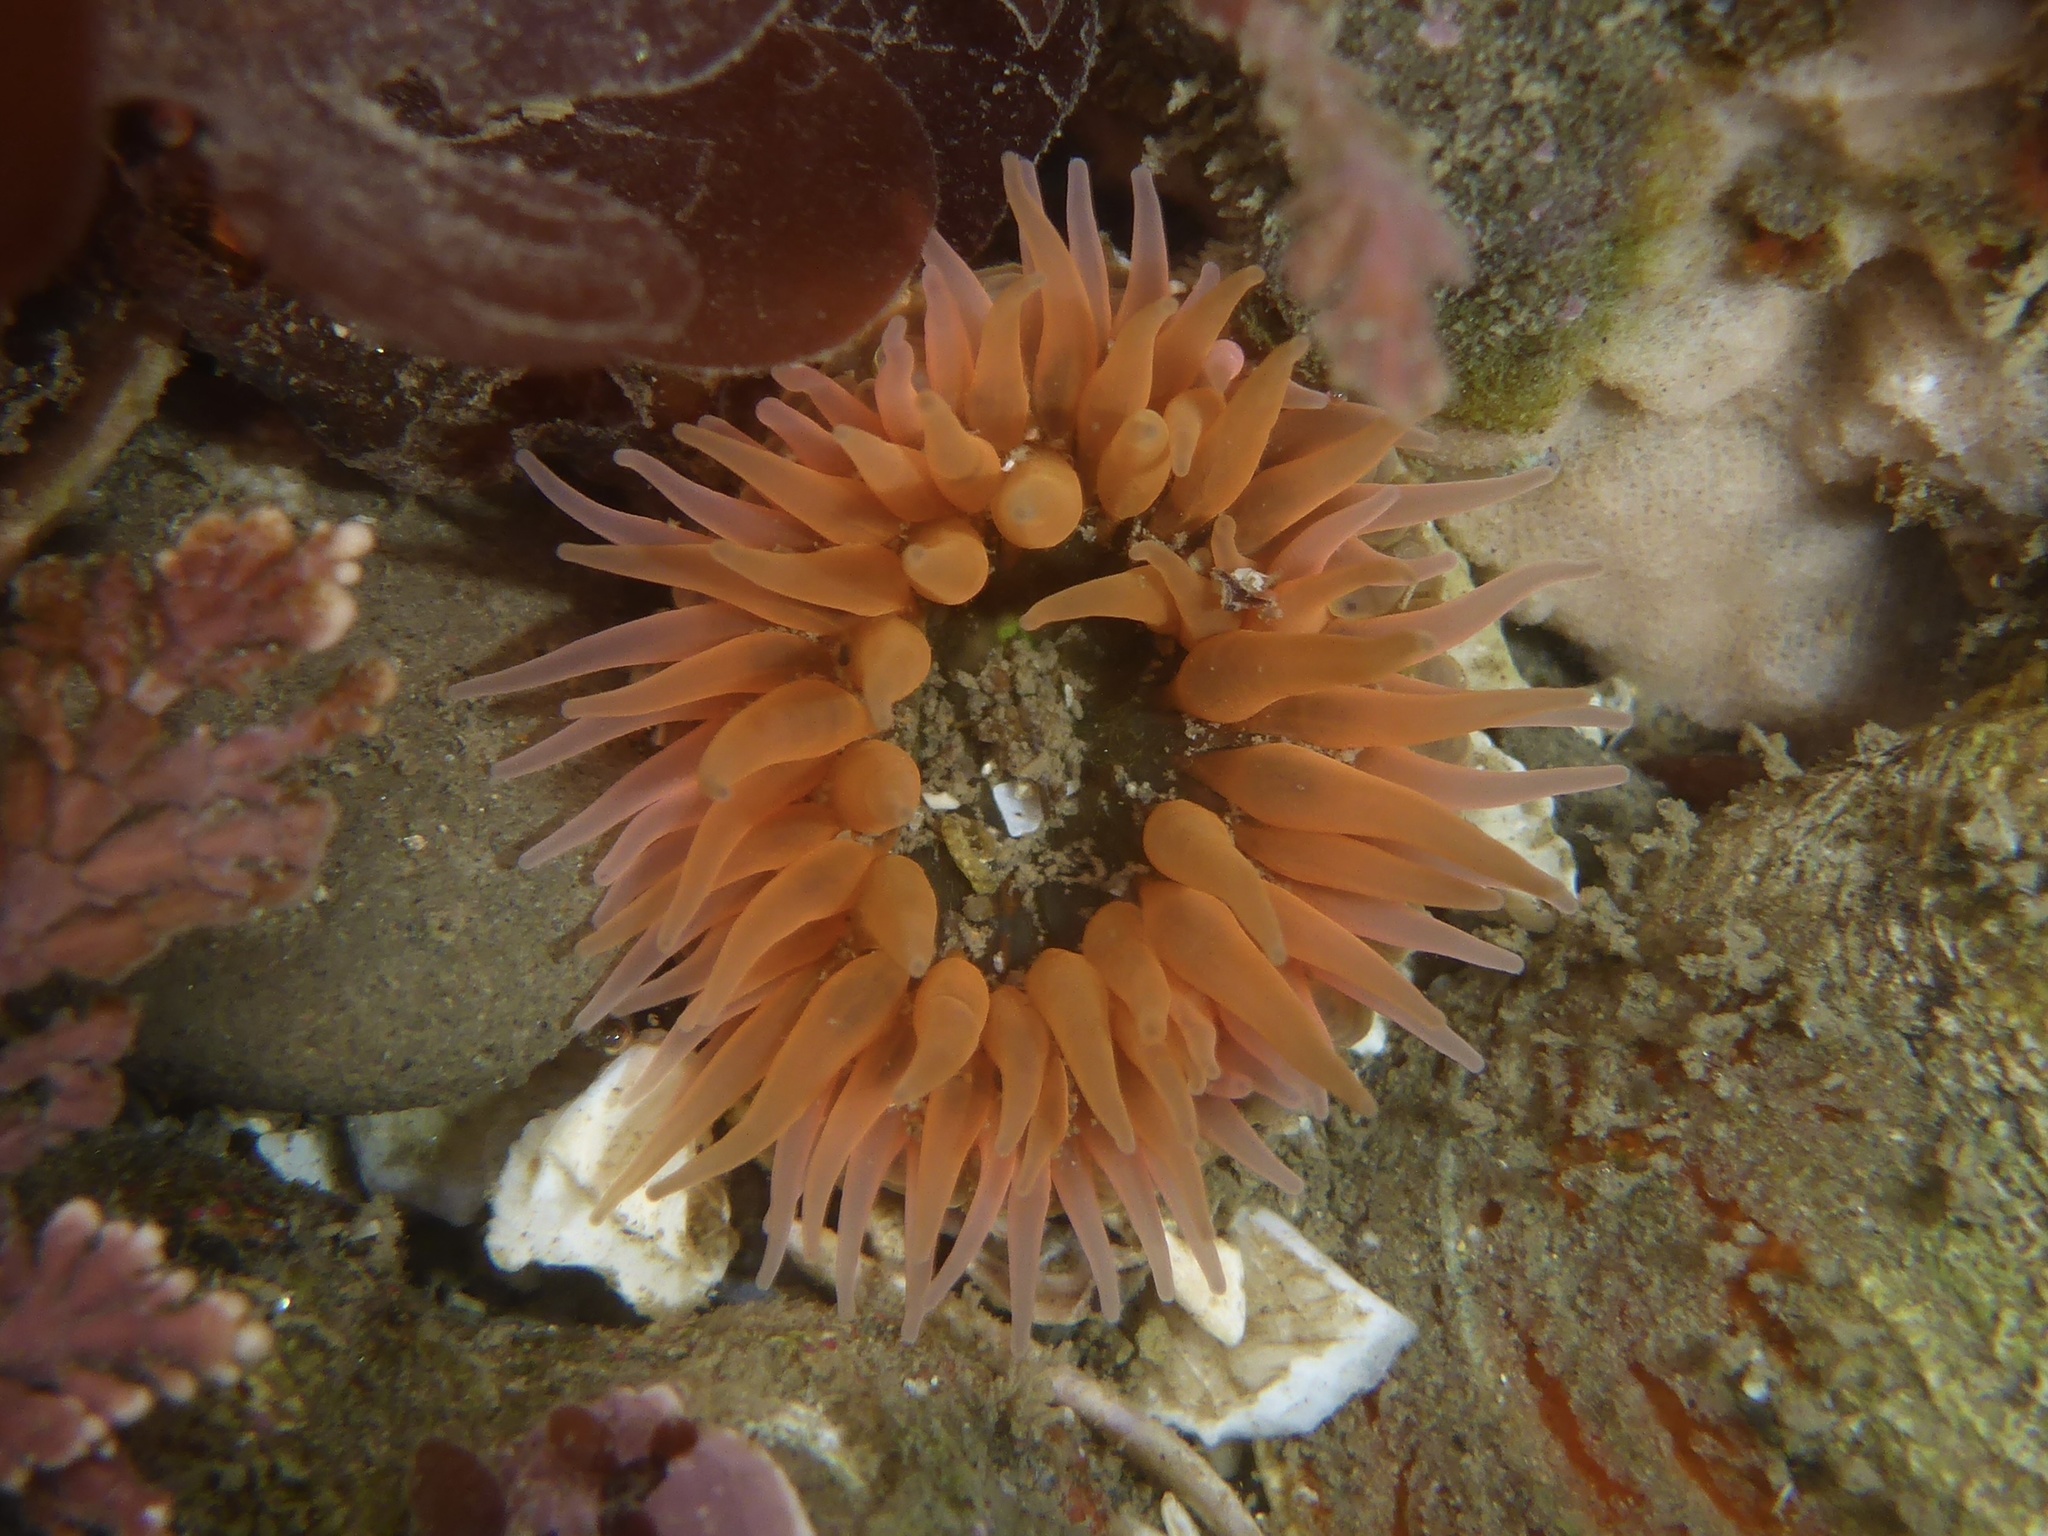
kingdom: Animalia
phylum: Cnidaria
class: Anthozoa
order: Actiniaria
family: Actiniidae
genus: Anthopleura
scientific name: Anthopleura artemisia
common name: Buried sea anemone
